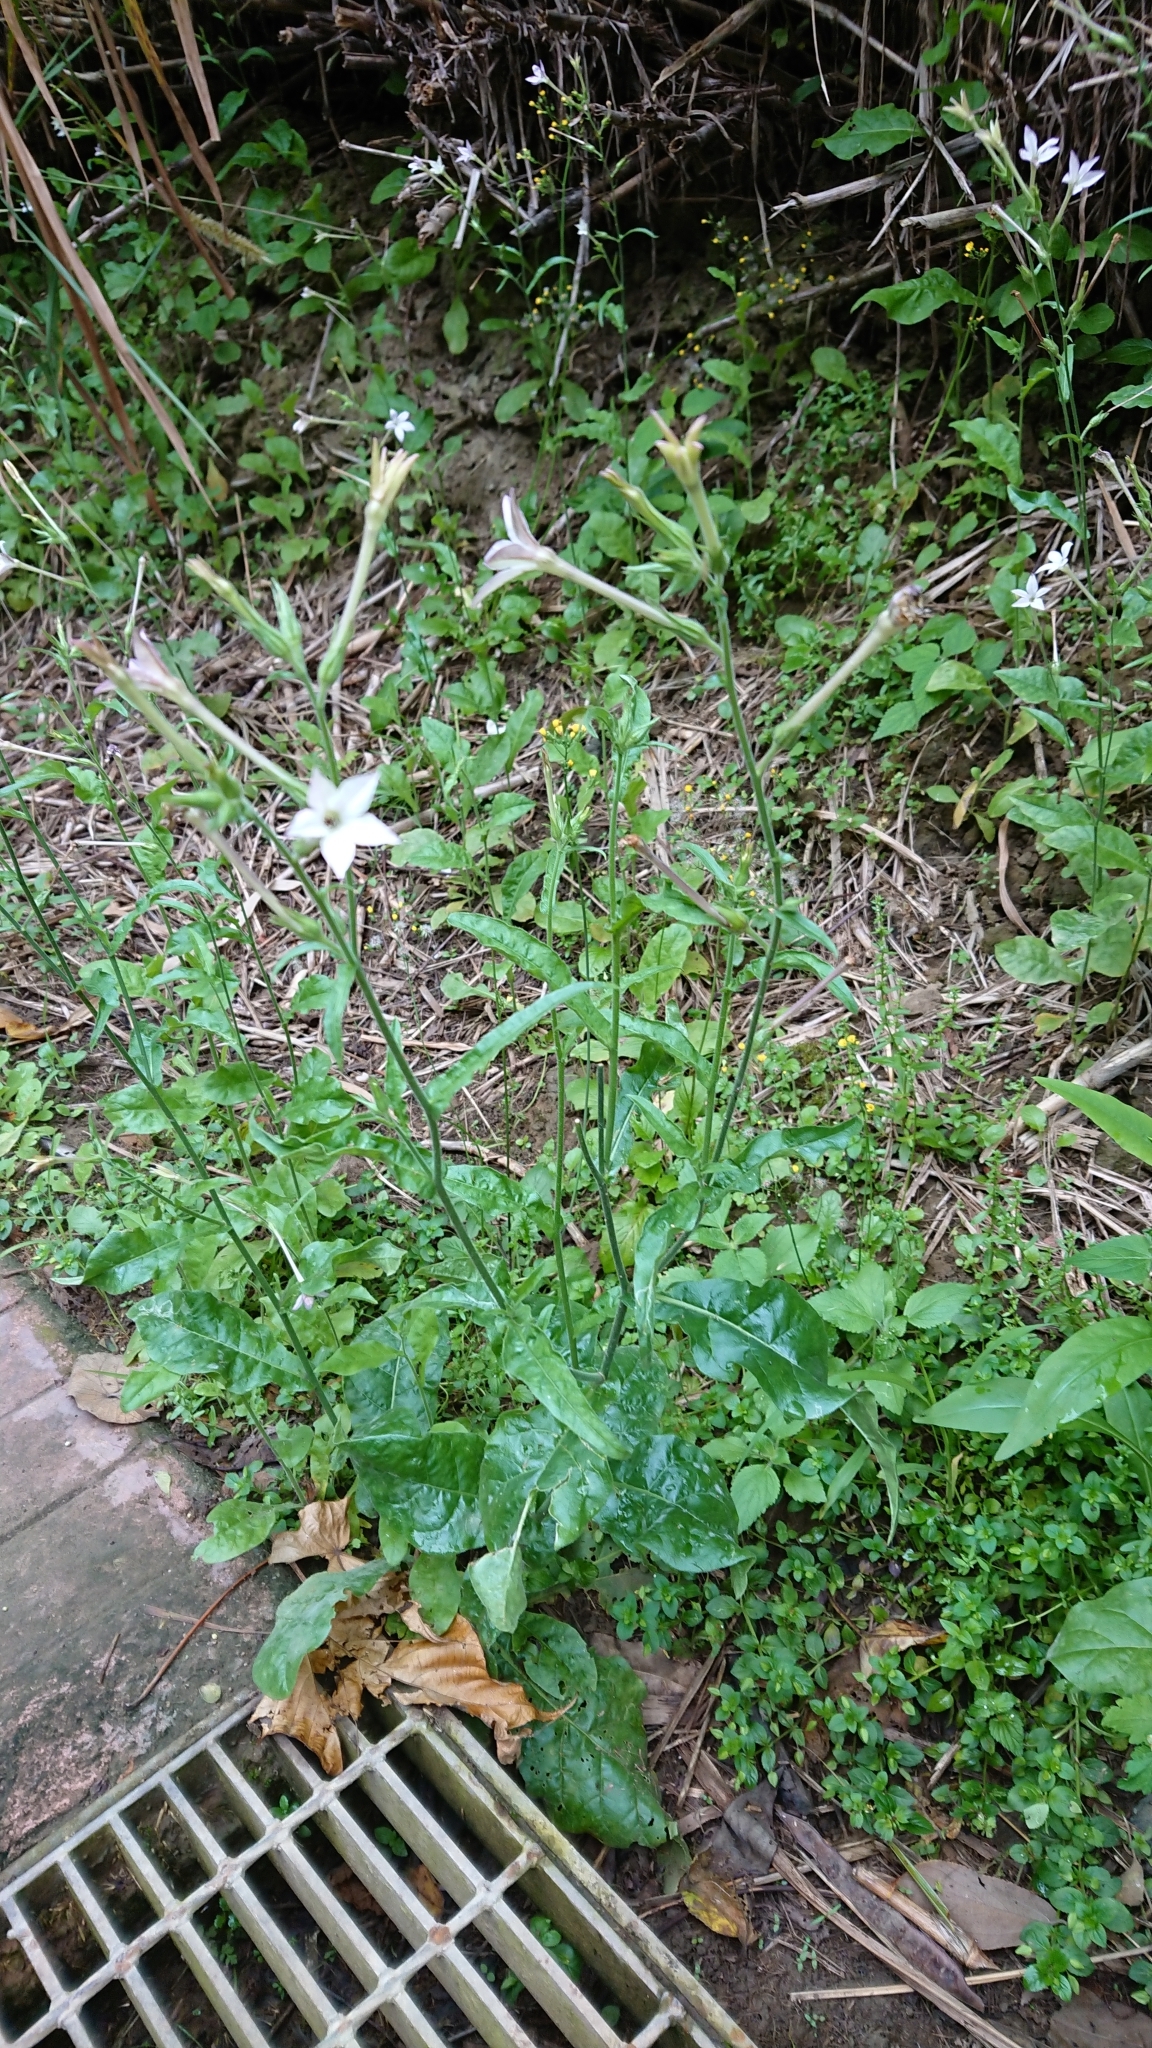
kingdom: Plantae
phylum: Tracheophyta
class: Magnoliopsida
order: Solanales
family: Solanaceae
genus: Nicotiana
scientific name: Nicotiana plumbaginifolia
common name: Tex-mex tobacco
